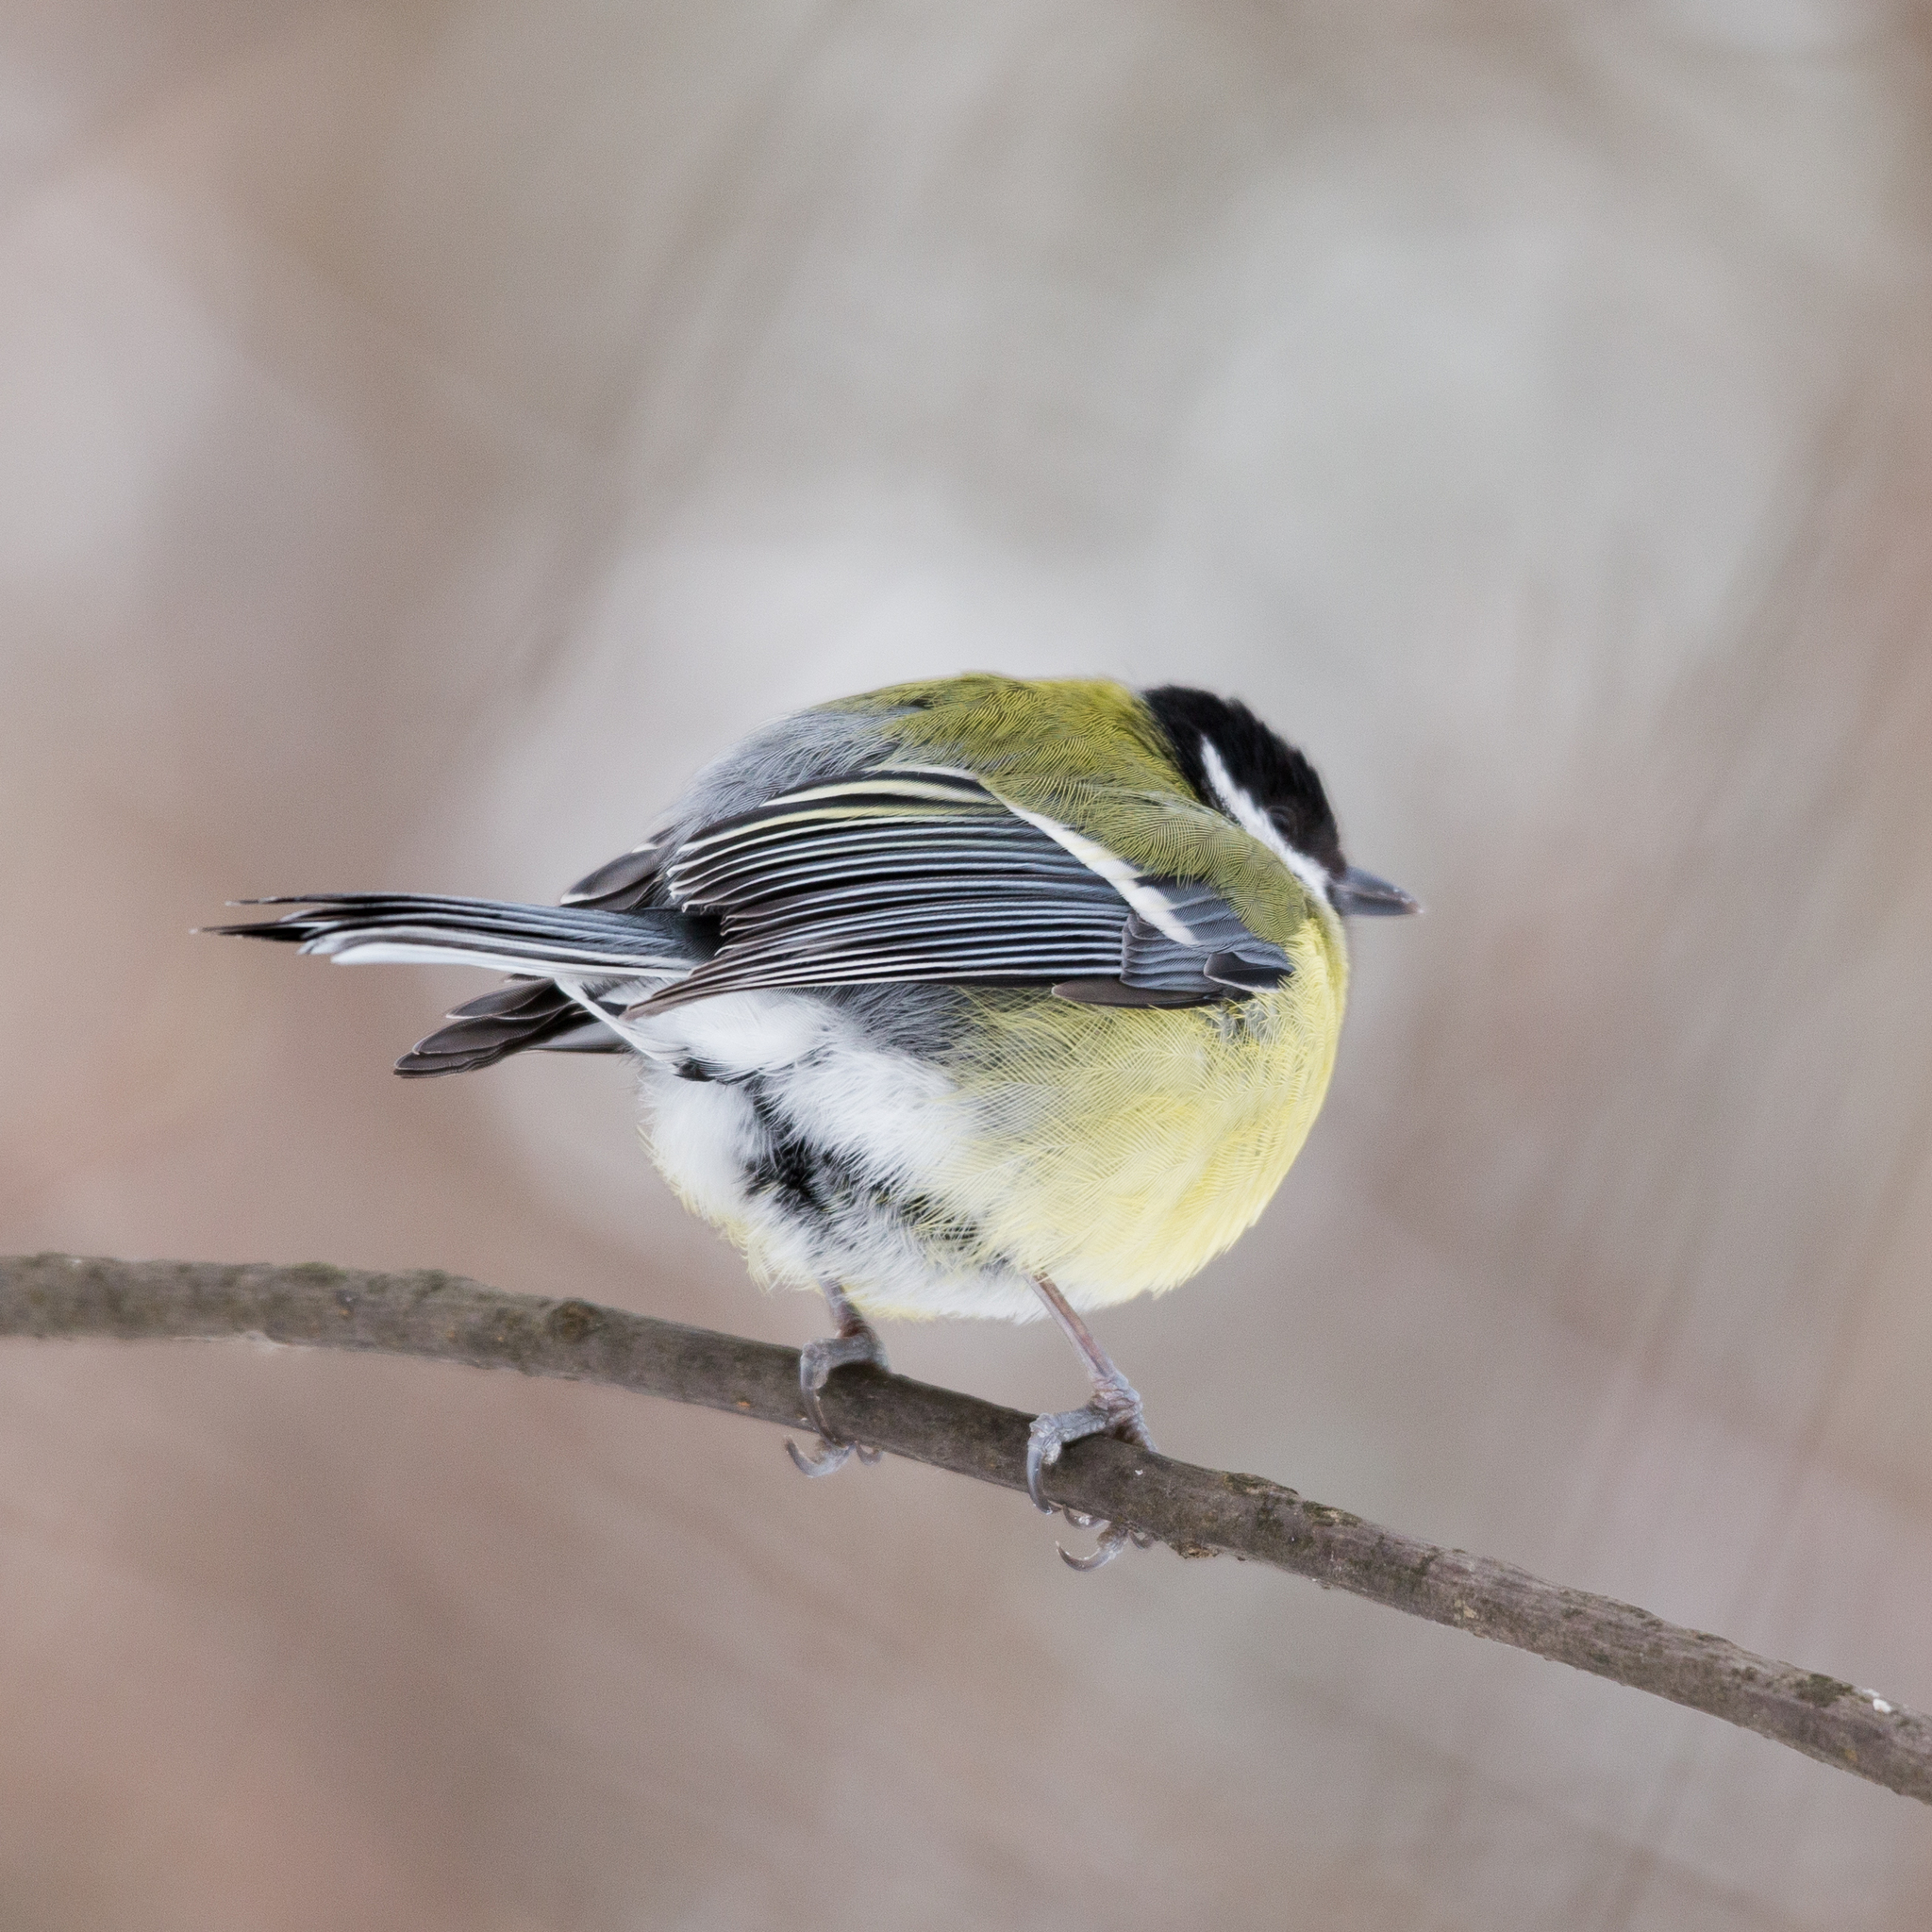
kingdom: Animalia
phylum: Chordata
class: Aves
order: Passeriformes
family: Paridae
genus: Parus
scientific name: Parus major
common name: Great tit
